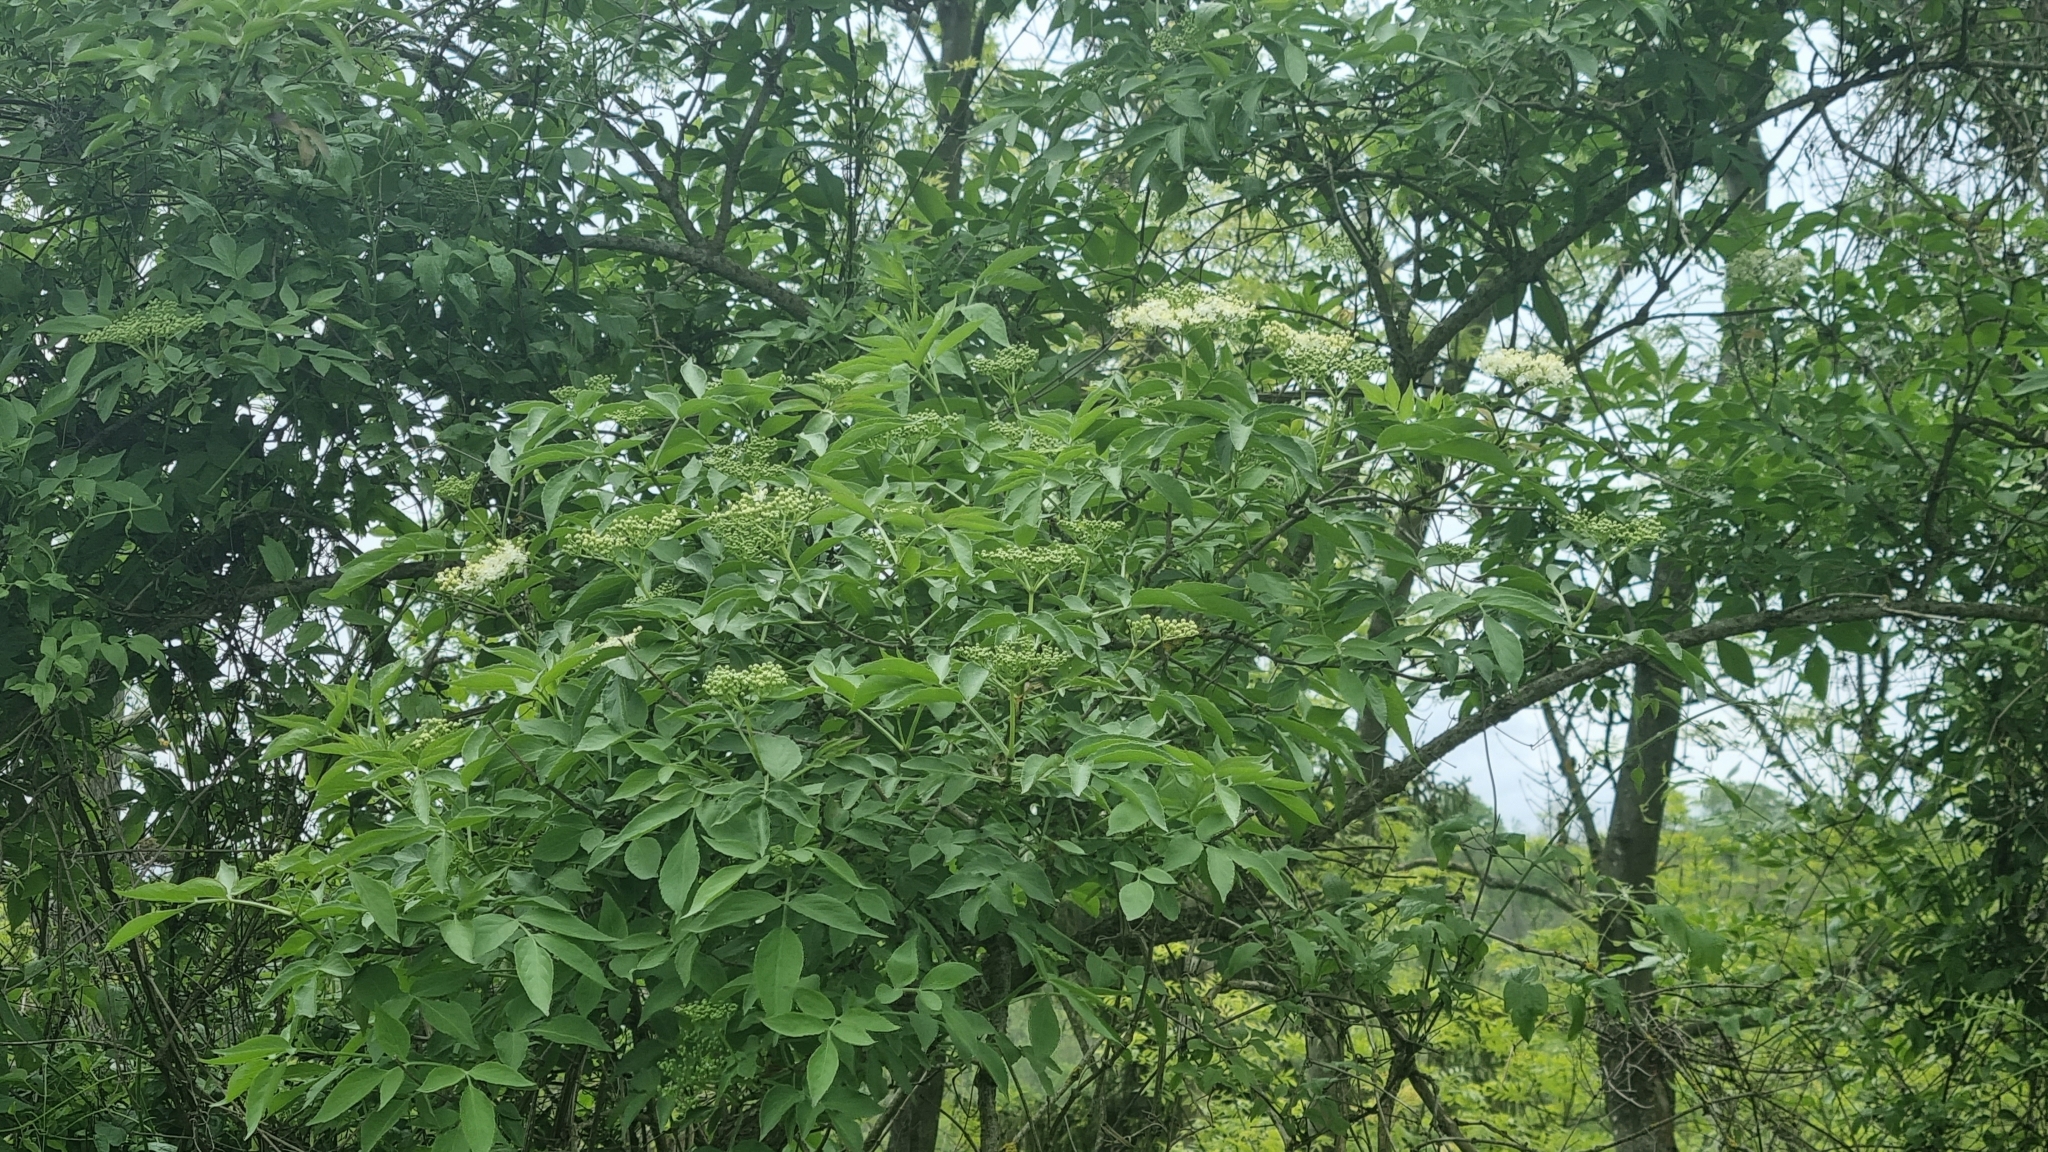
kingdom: Plantae
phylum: Tracheophyta
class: Magnoliopsida
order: Dipsacales
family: Viburnaceae
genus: Sambucus
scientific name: Sambucus nigra
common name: Elder
